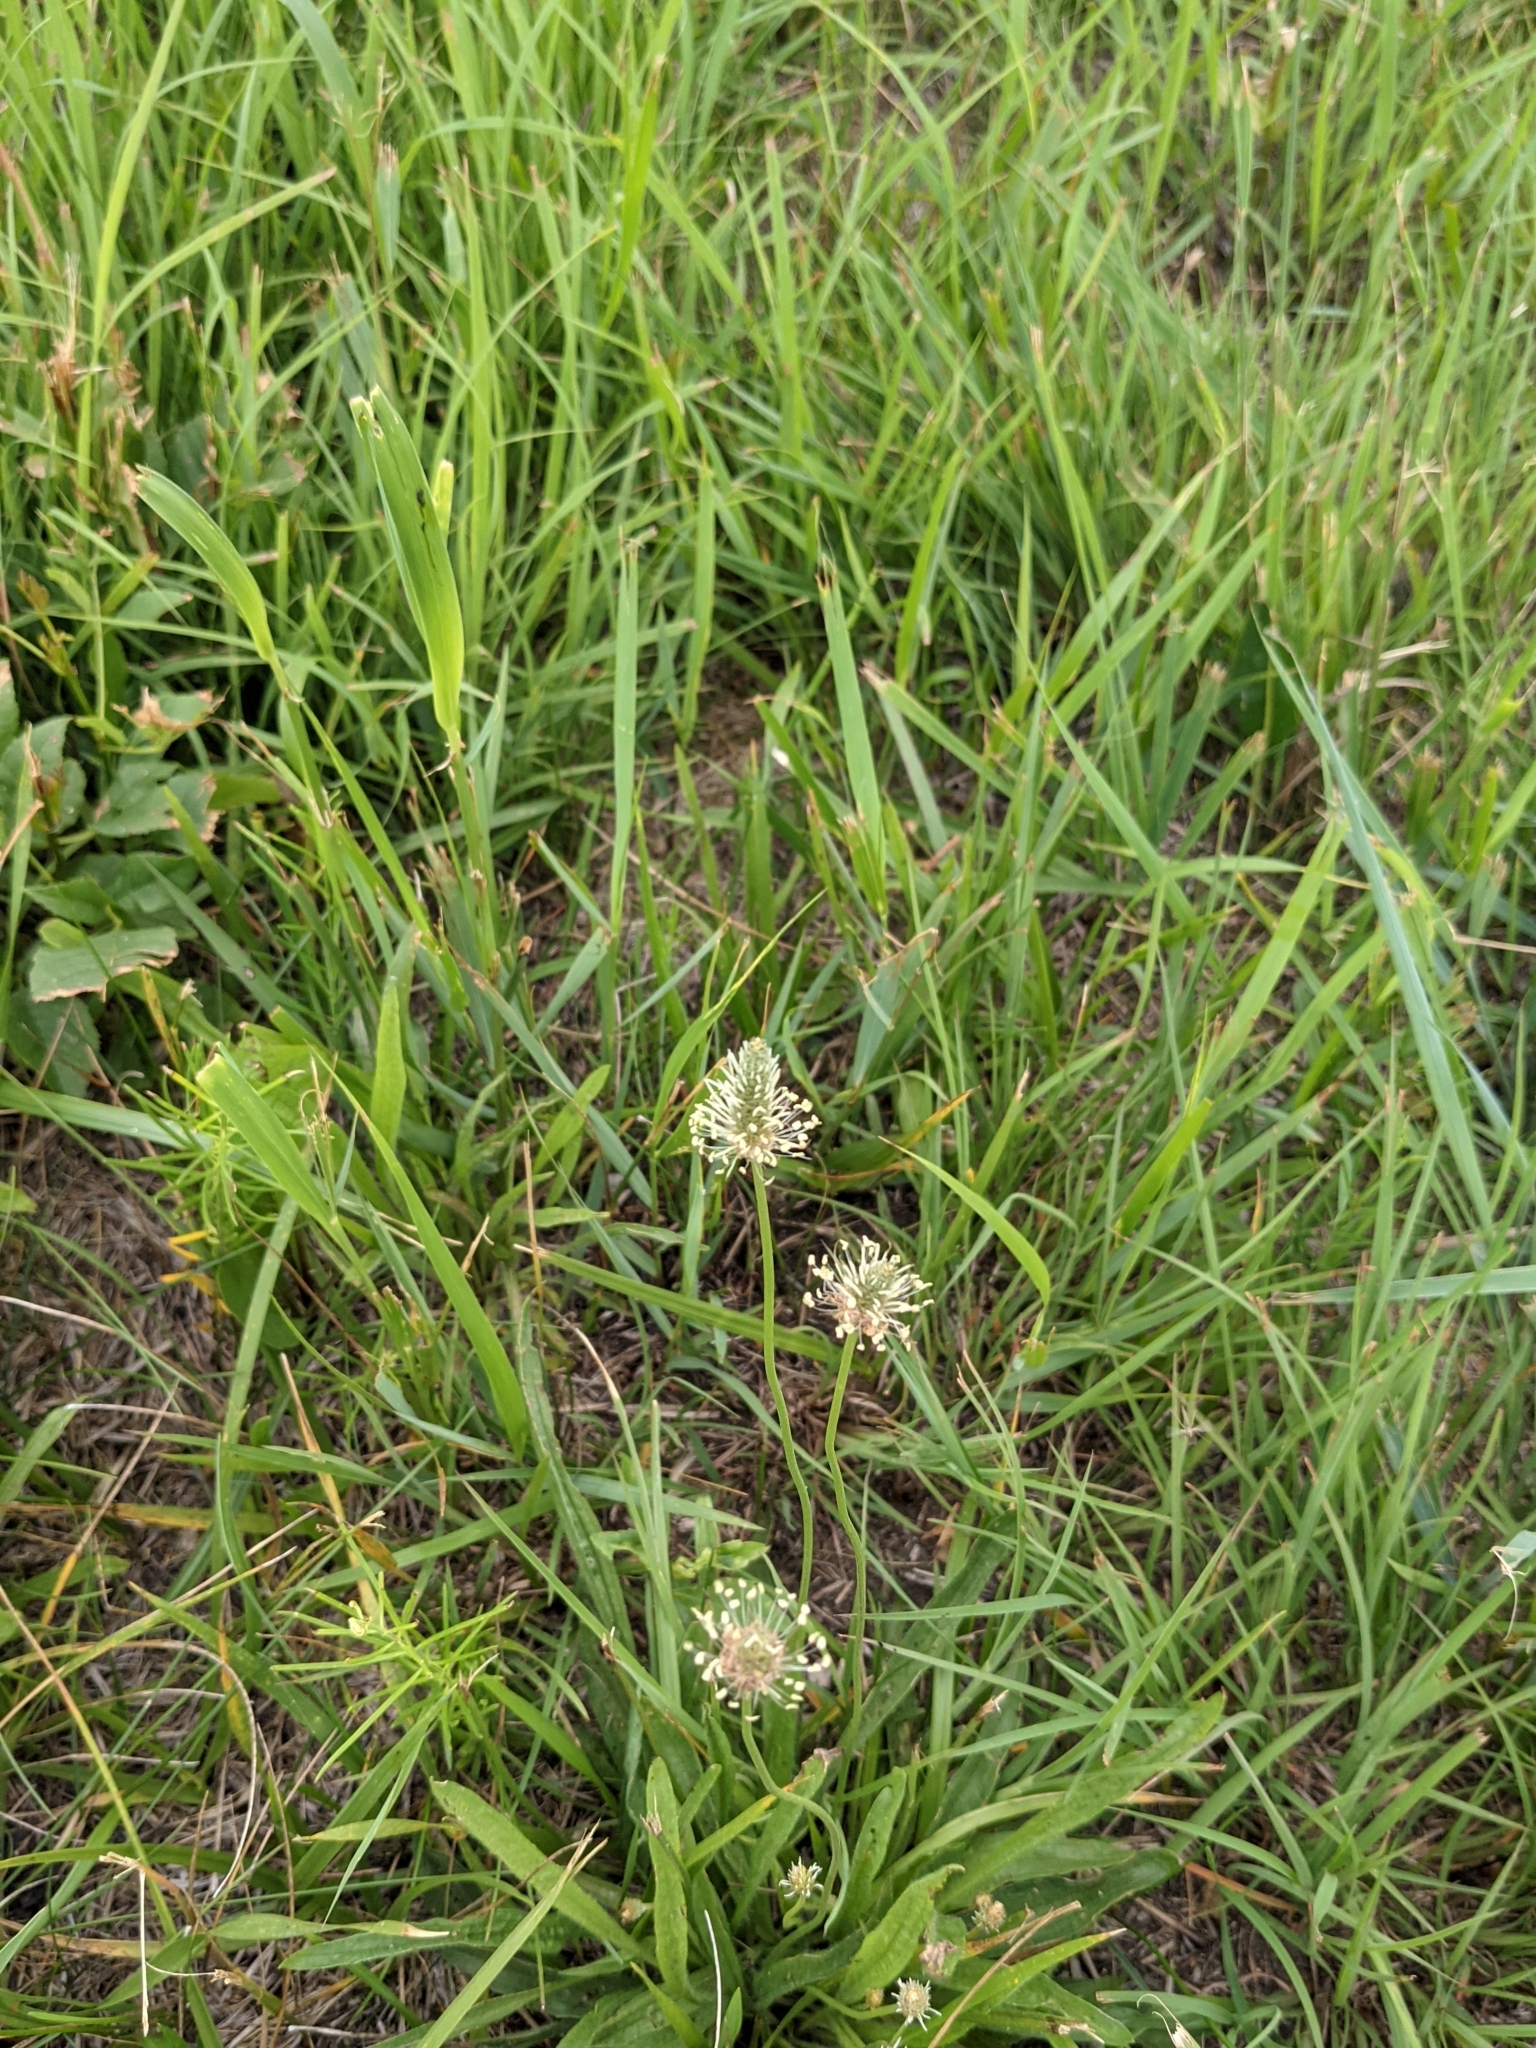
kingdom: Plantae
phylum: Tracheophyta
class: Magnoliopsida
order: Lamiales
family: Plantaginaceae
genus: Plantago
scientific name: Plantago lanceolata
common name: Ribwort plantain
